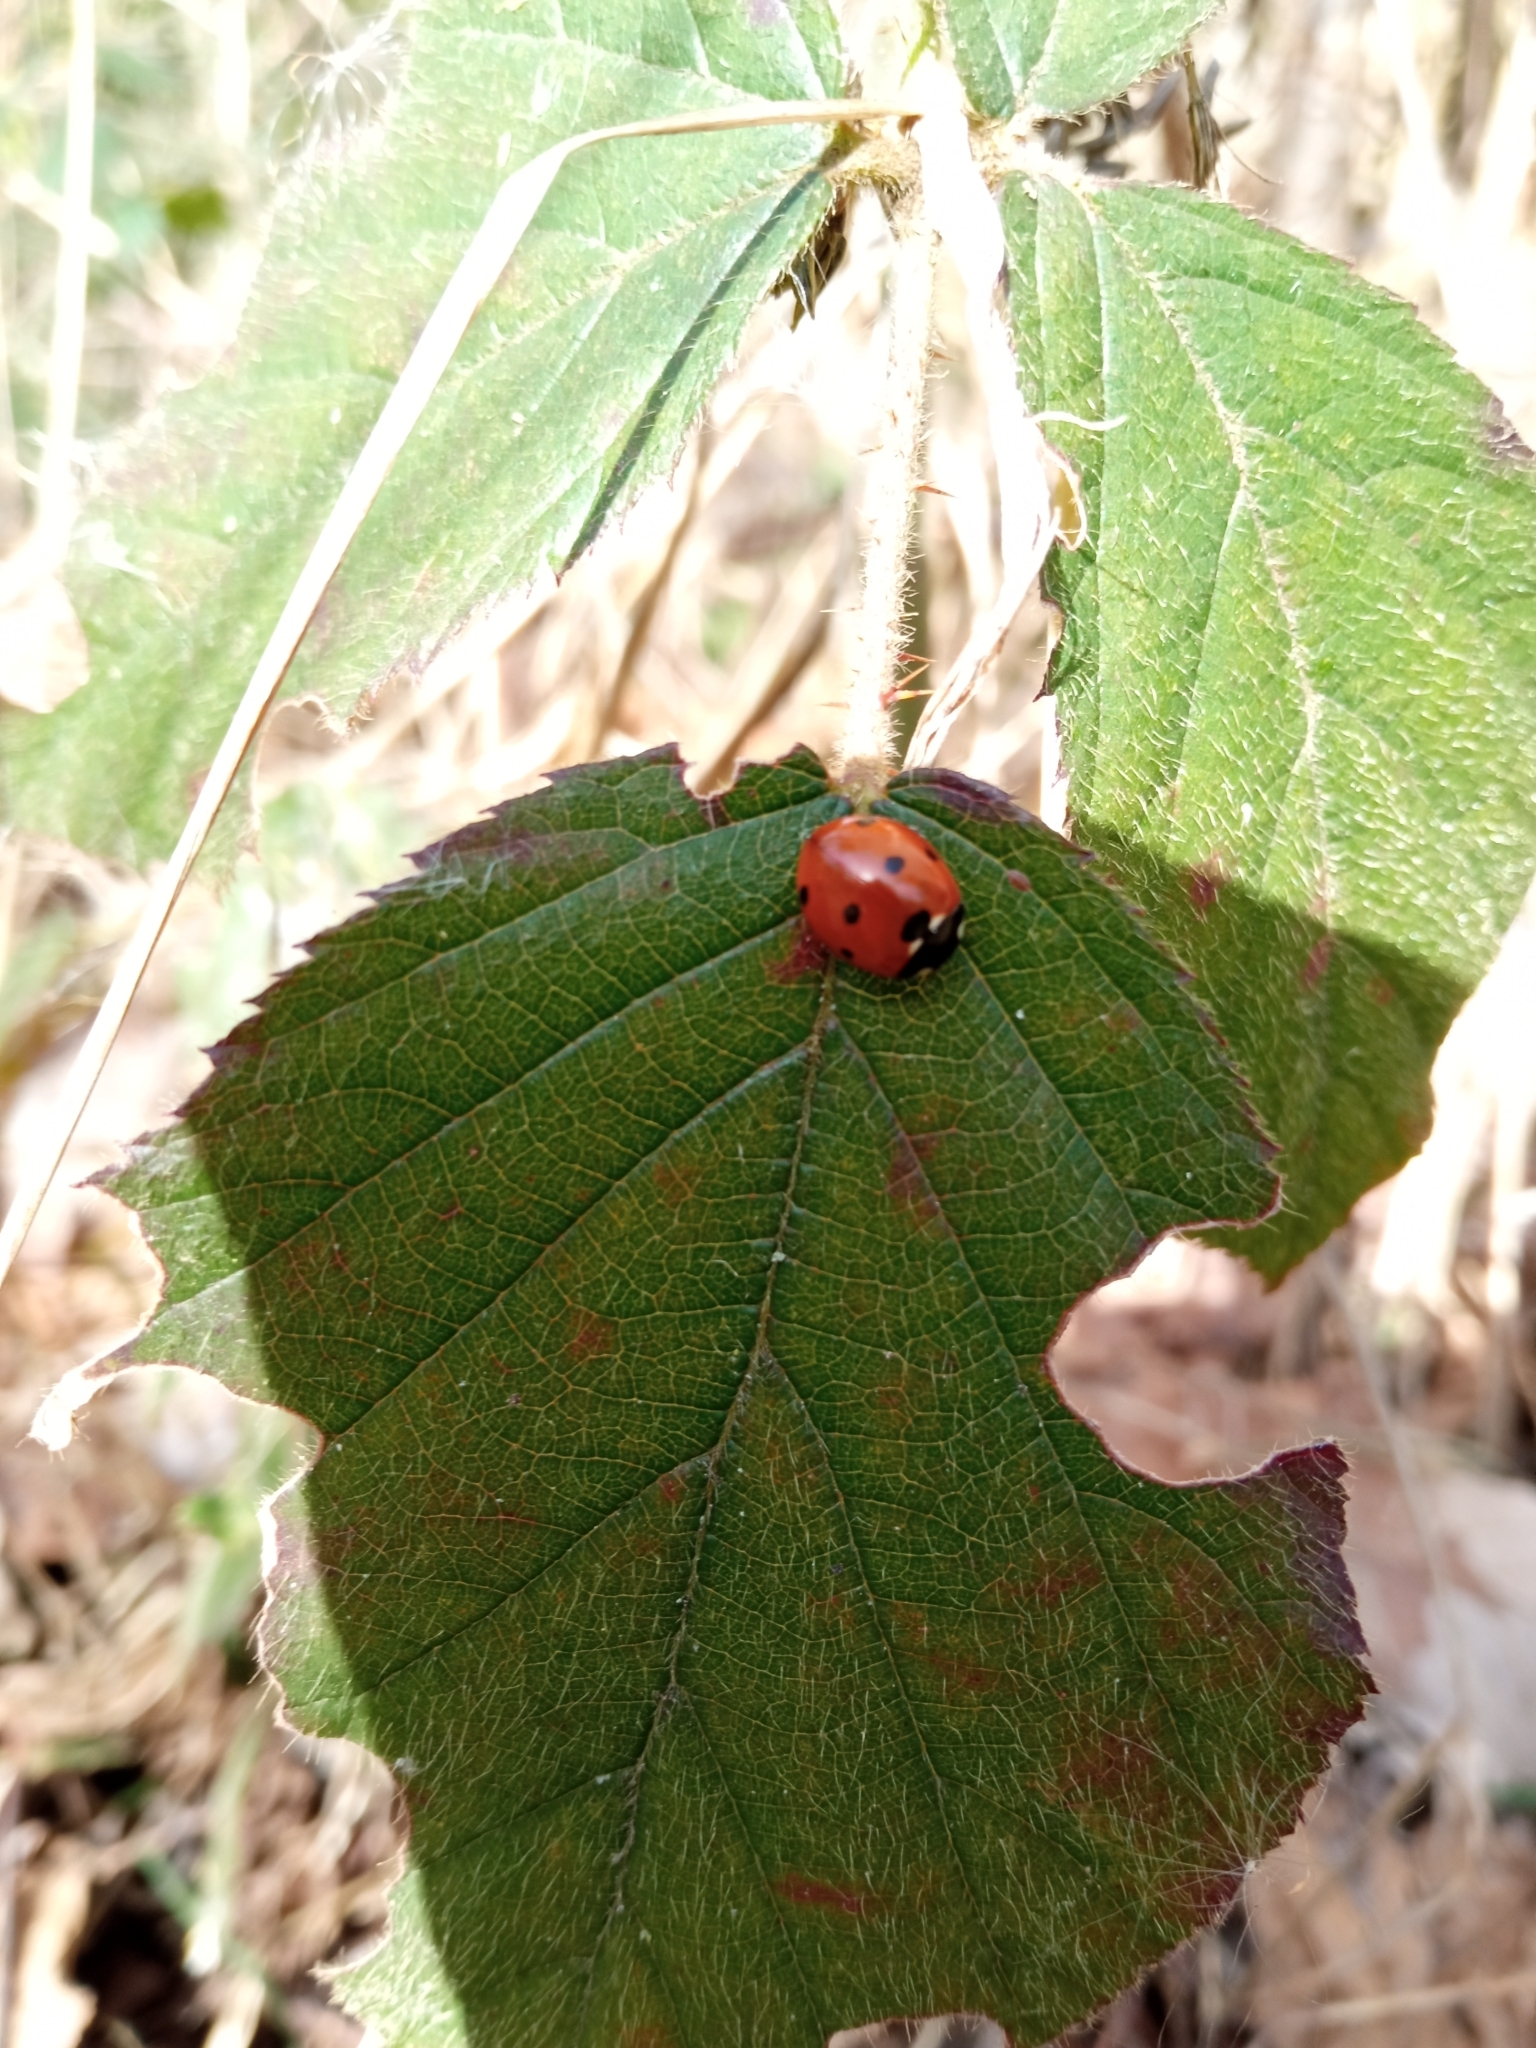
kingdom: Animalia
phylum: Arthropoda
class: Insecta
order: Coleoptera
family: Coccinellidae
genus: Coccinella
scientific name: Coccinella septempunctata
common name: Sevenspotted lady beetle
